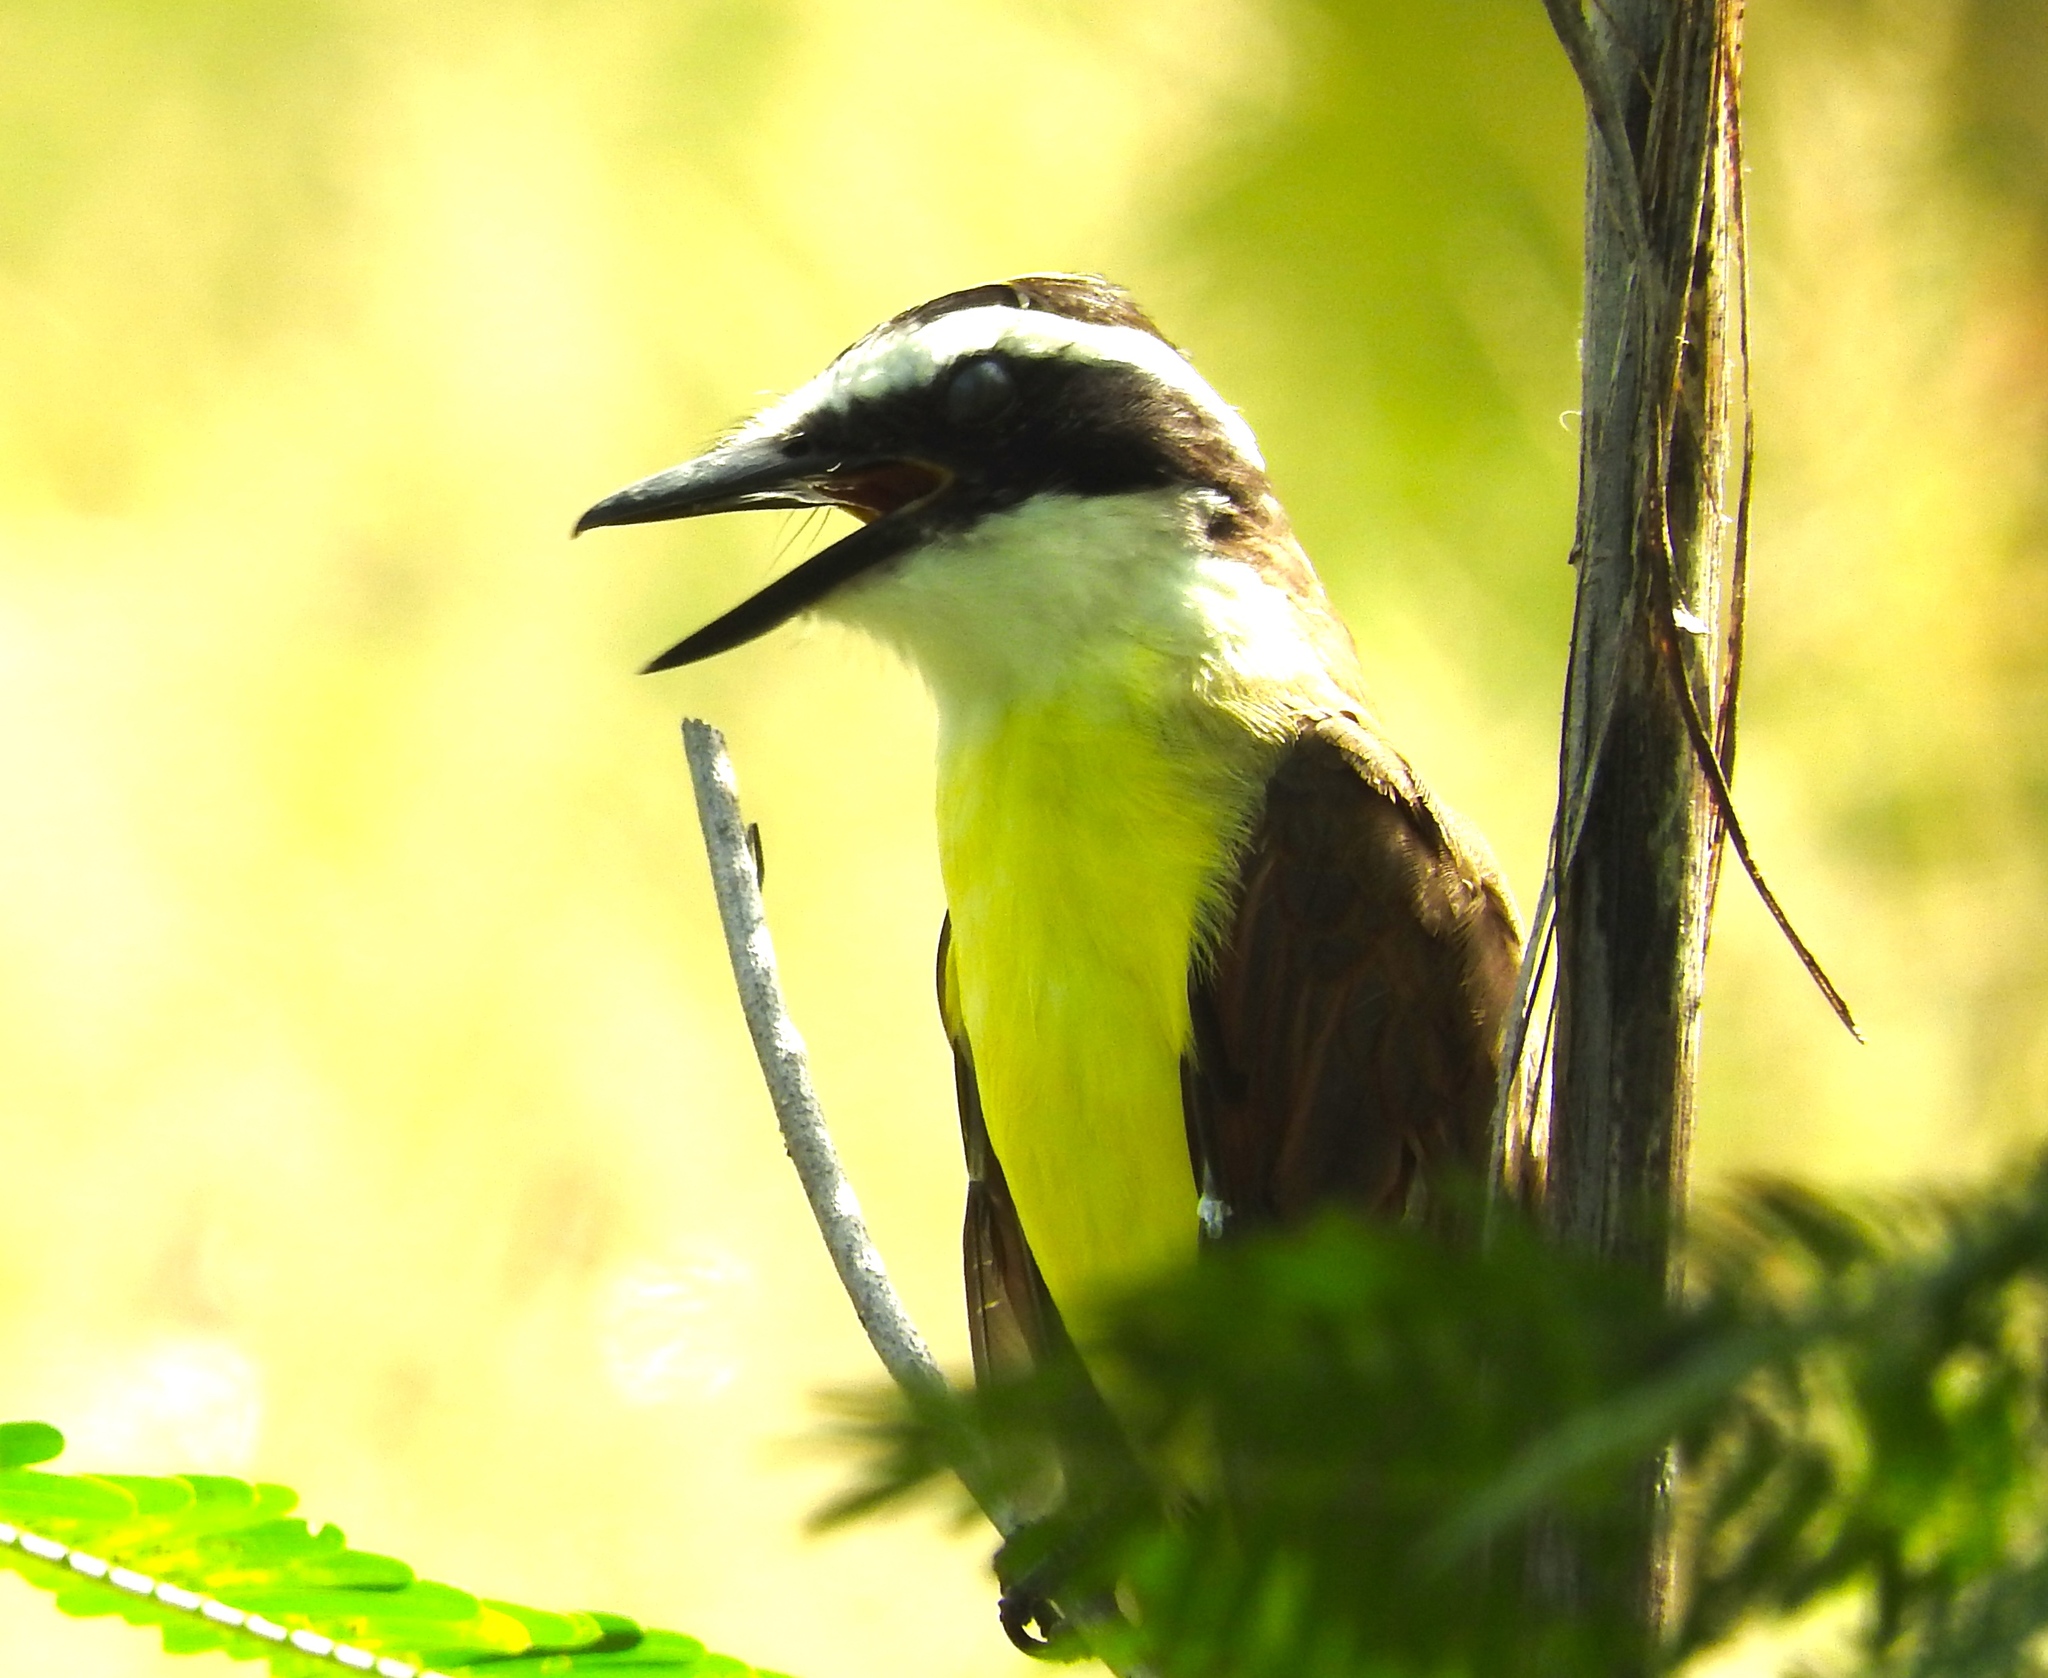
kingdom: Animalia
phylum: Chordata
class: Aves
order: Passeriformes
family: Tyrannidae
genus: Pitangus
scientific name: Pitangus sulphuratus
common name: Great kiskadee
